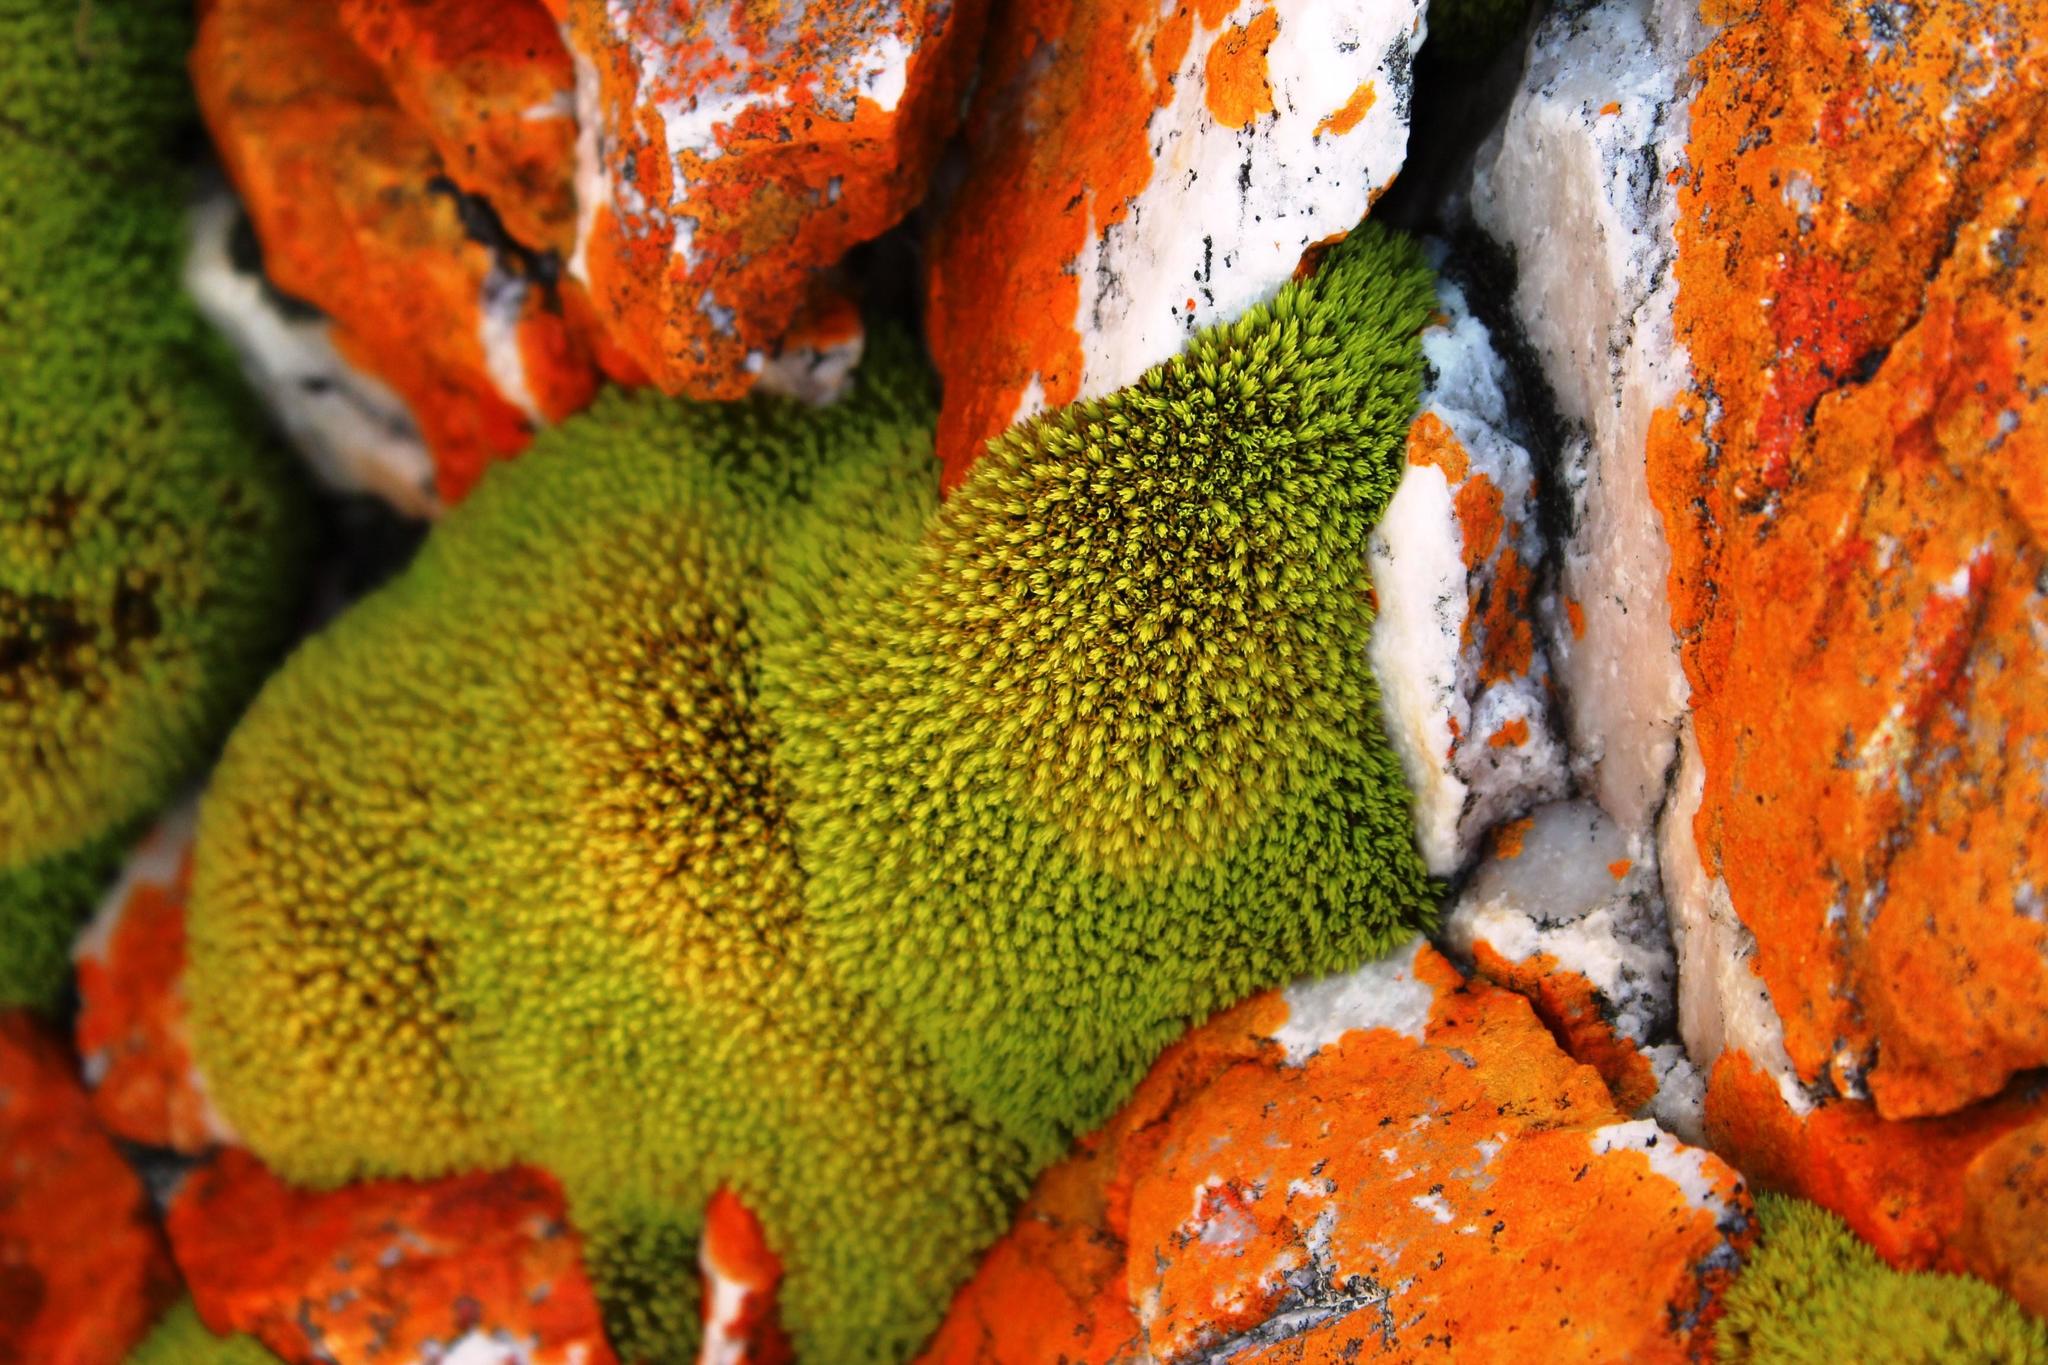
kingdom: Plantae
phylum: Bryophyta
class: Bryopsida
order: Dicranales
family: Hypodontiaceae
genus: Hypodontium
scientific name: Hypodontium pomiforme
